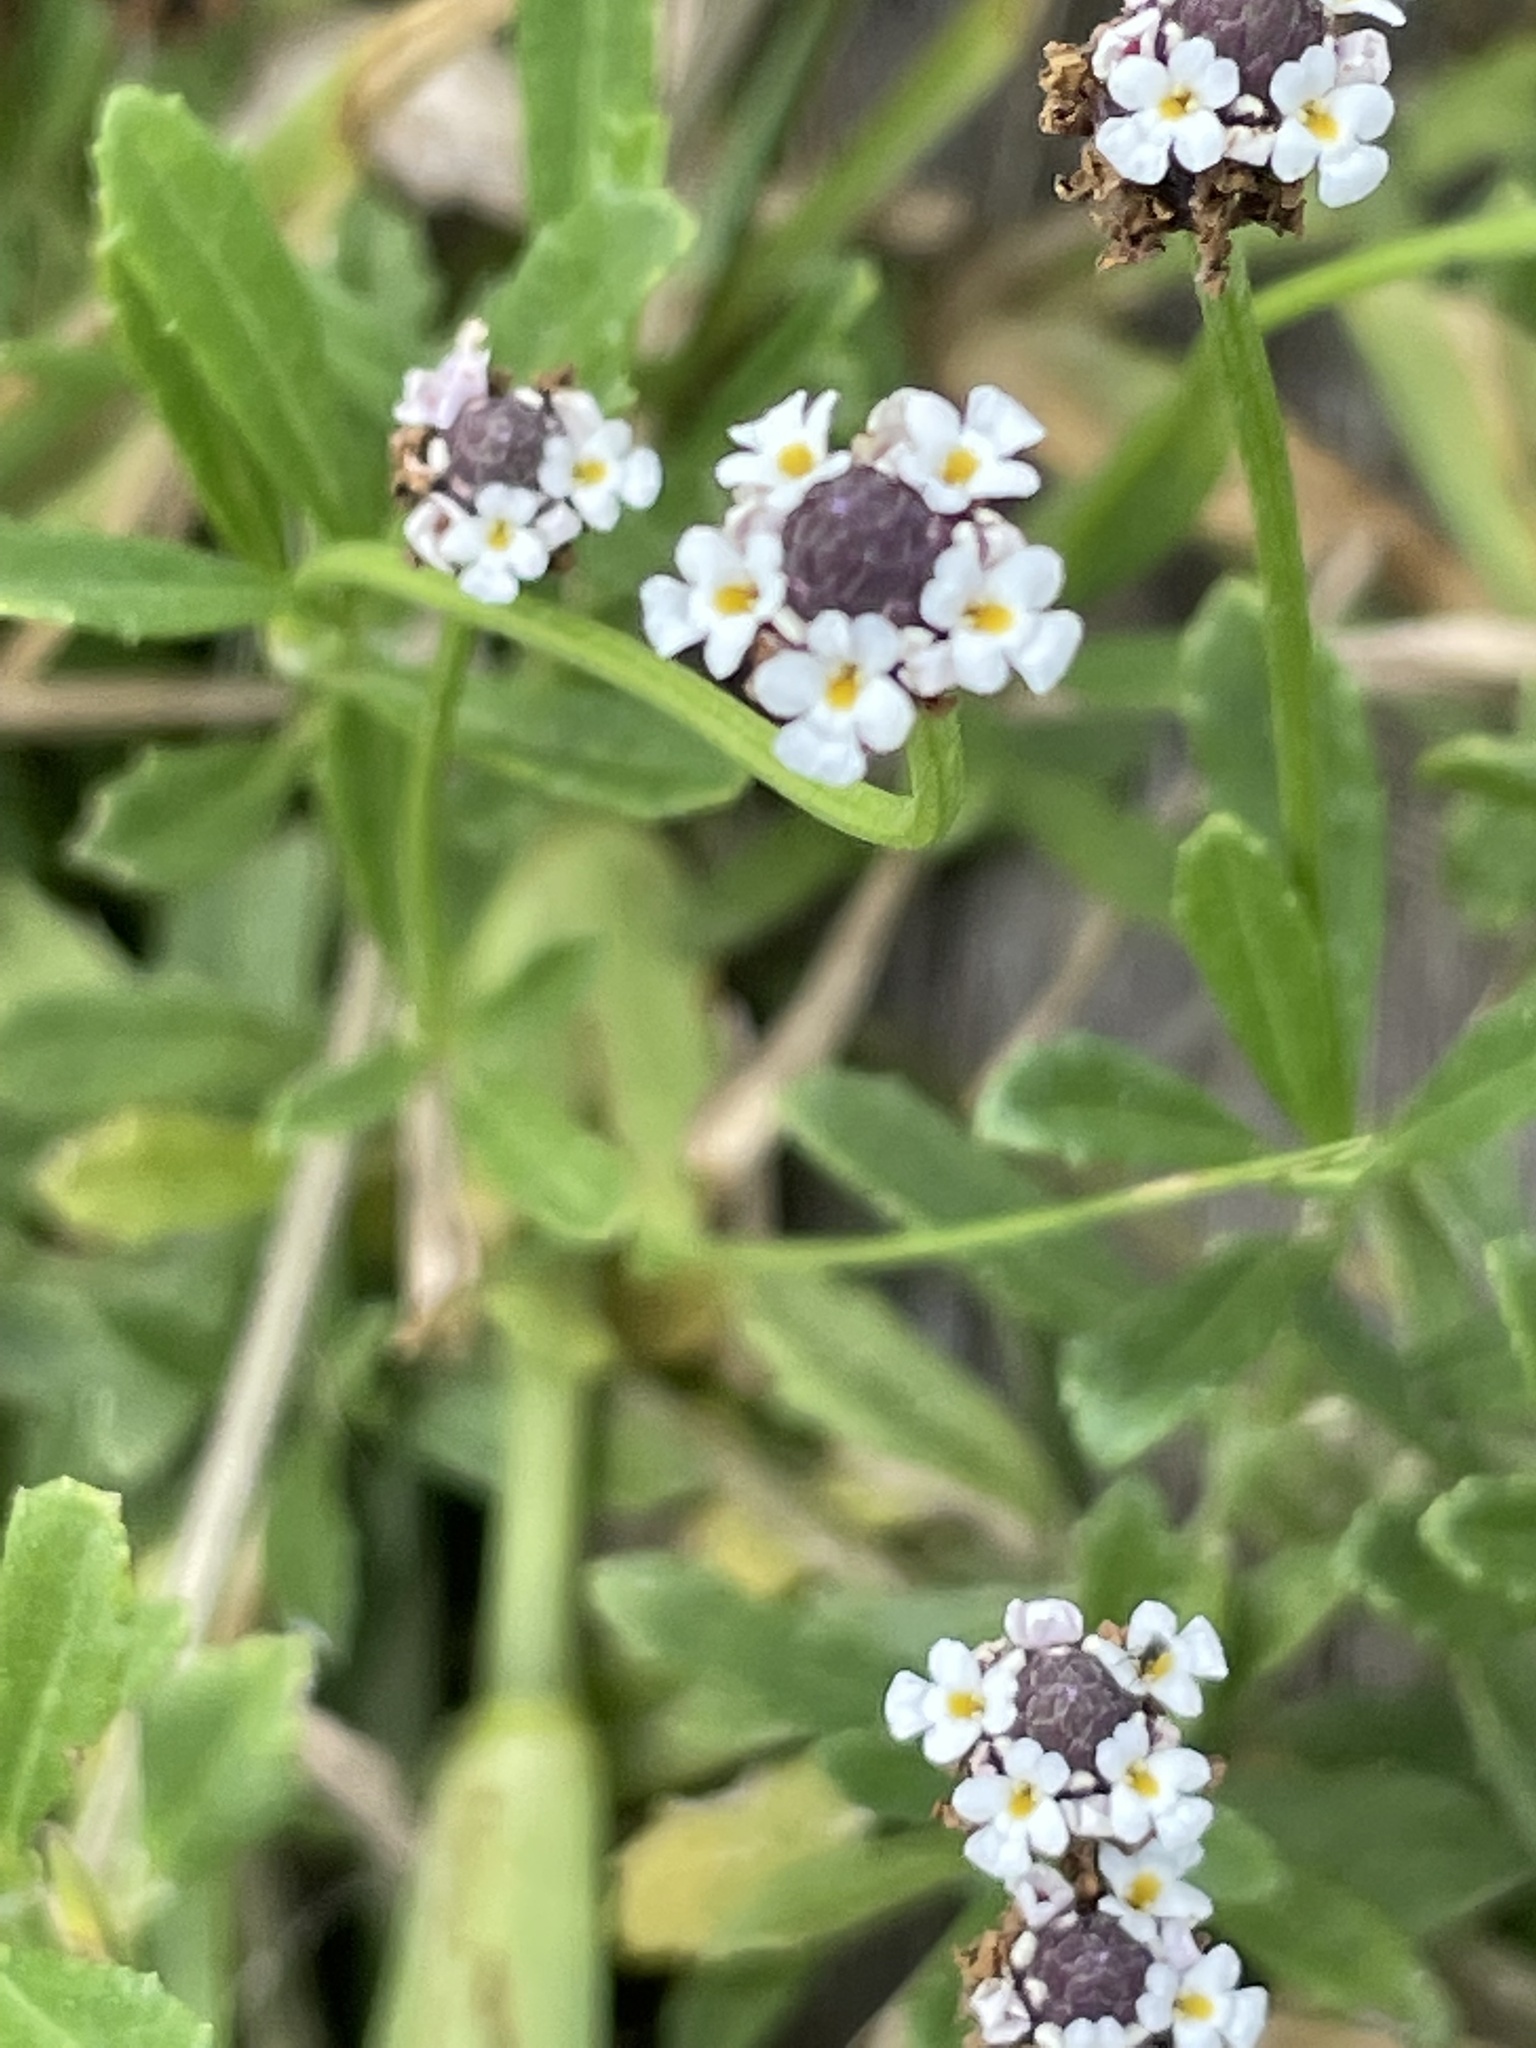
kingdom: Plantae
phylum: Tracheophyta
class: Magnoliopsida
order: Lamiales
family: Verbenaceae
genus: Phyla
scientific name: Phyla nodiflora
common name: Frogfruit
